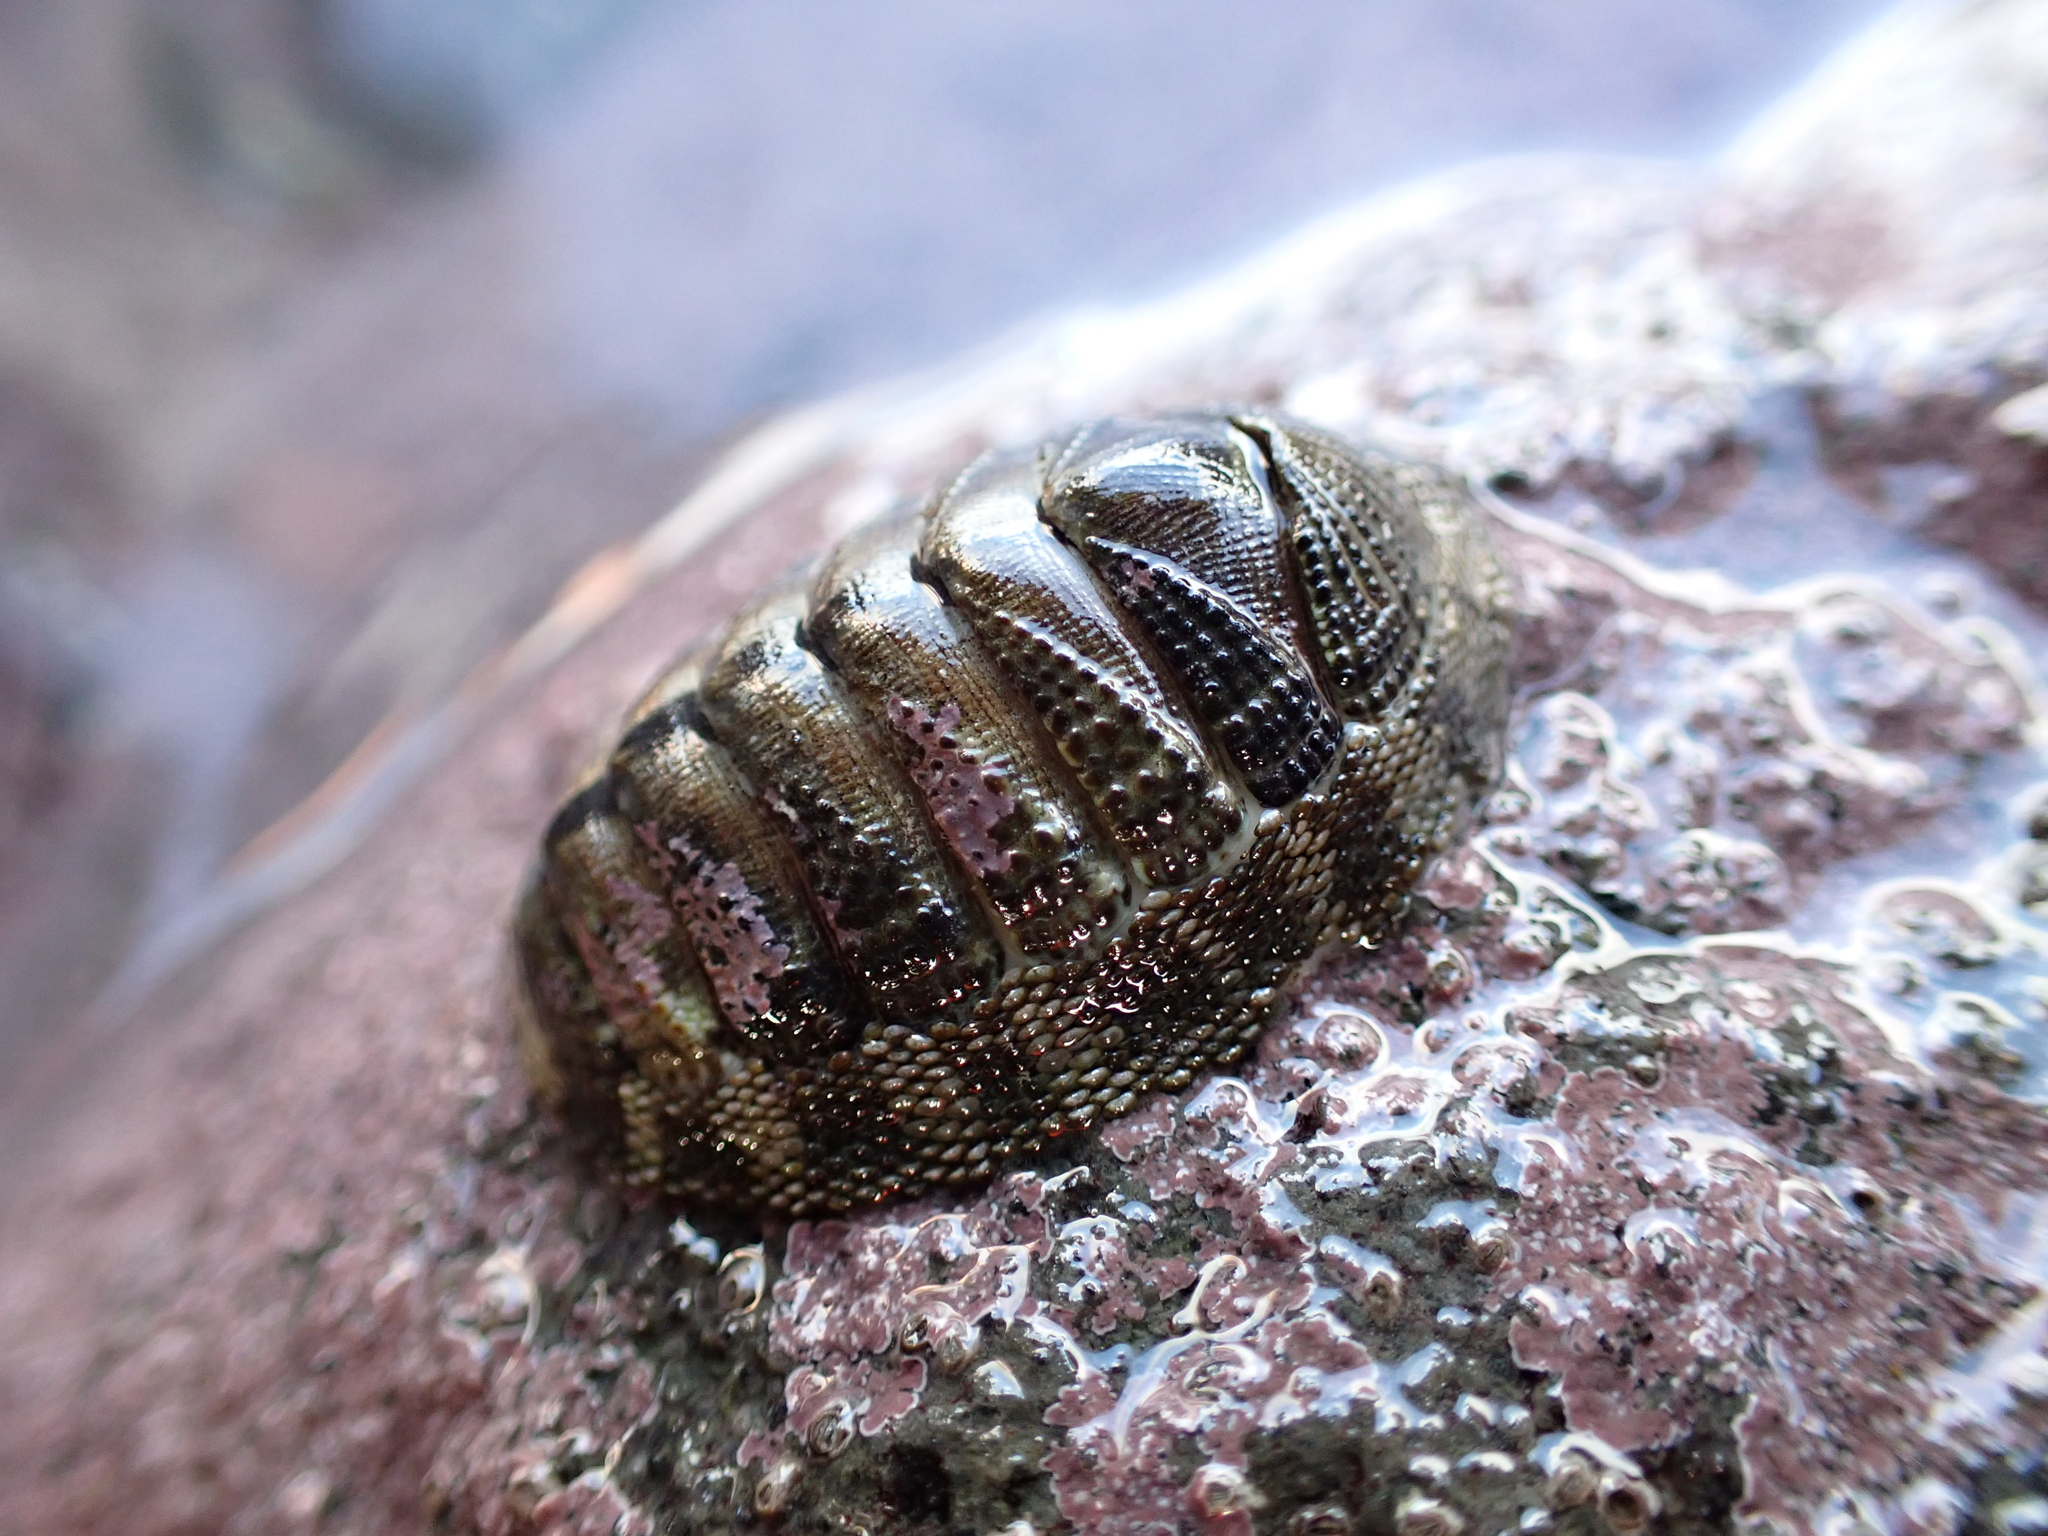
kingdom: Animalia
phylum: Mollusca
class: Polyplacophora
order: Chitonida
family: Chitonidae
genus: Sypharochiton
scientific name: Sypharochiton pelliserpentis
